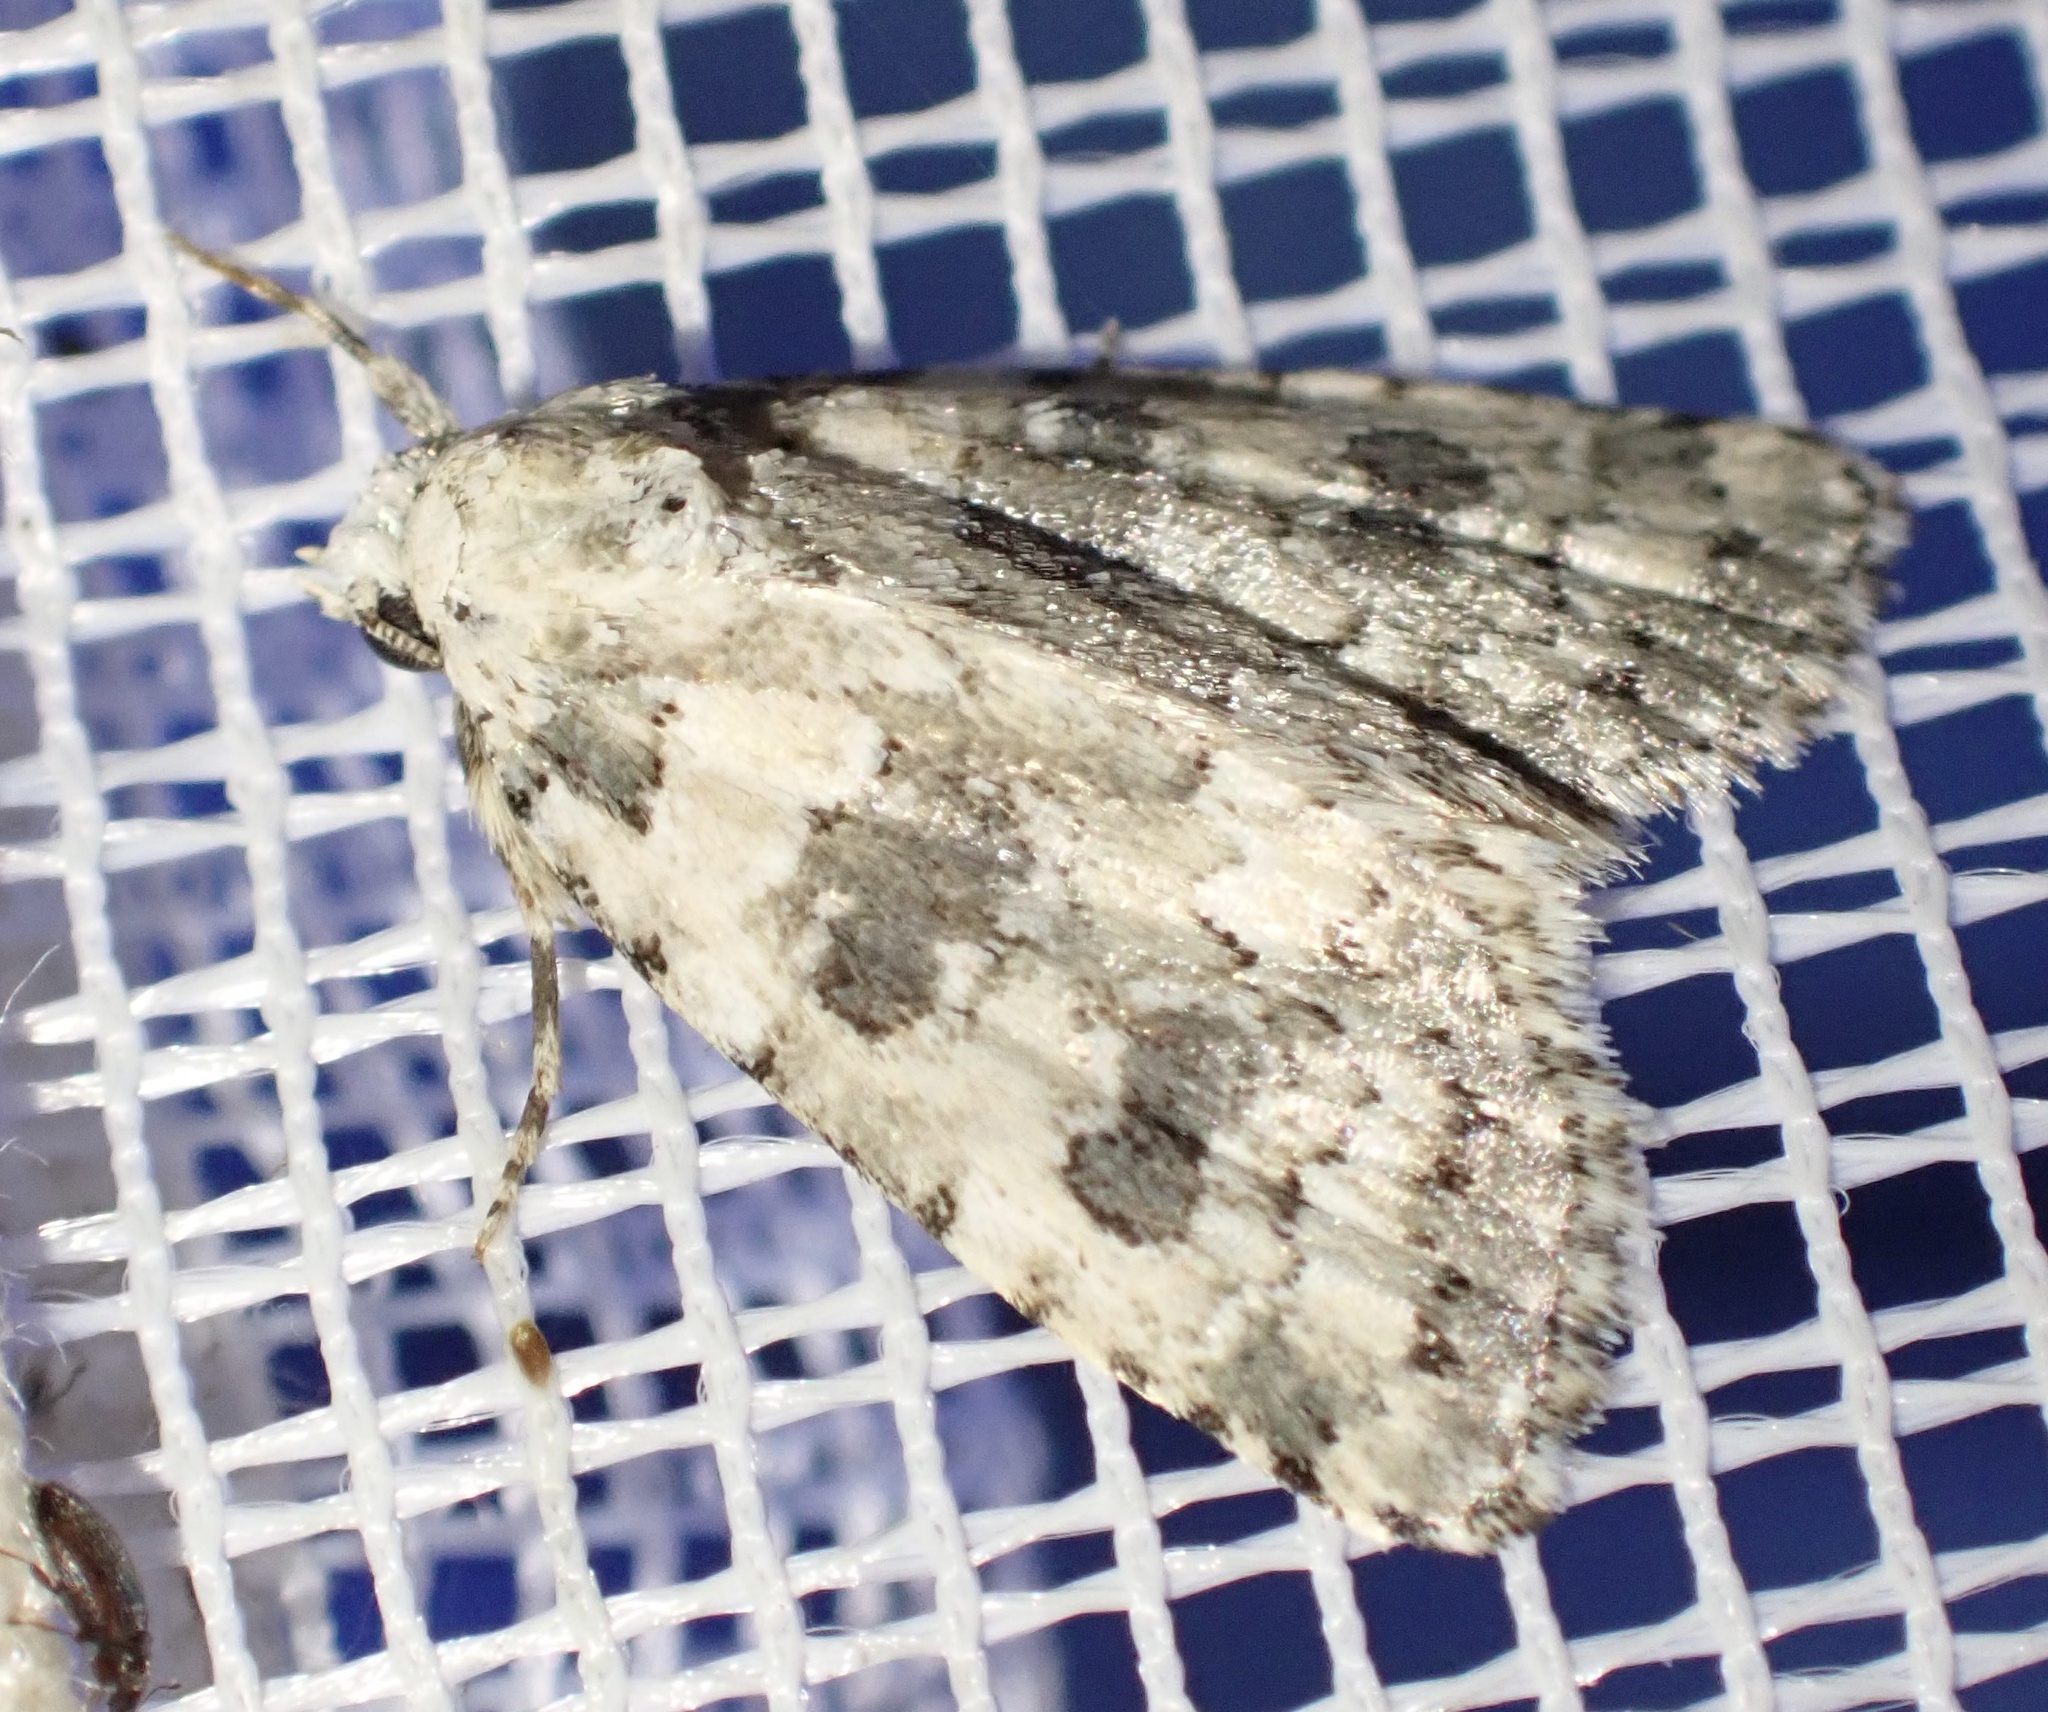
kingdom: Animalia
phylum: Arthropoda
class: Insecta
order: Lepidoptera
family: Noctuidae
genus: Bryophila
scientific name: Bryophila domestica
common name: Marbled beauty
